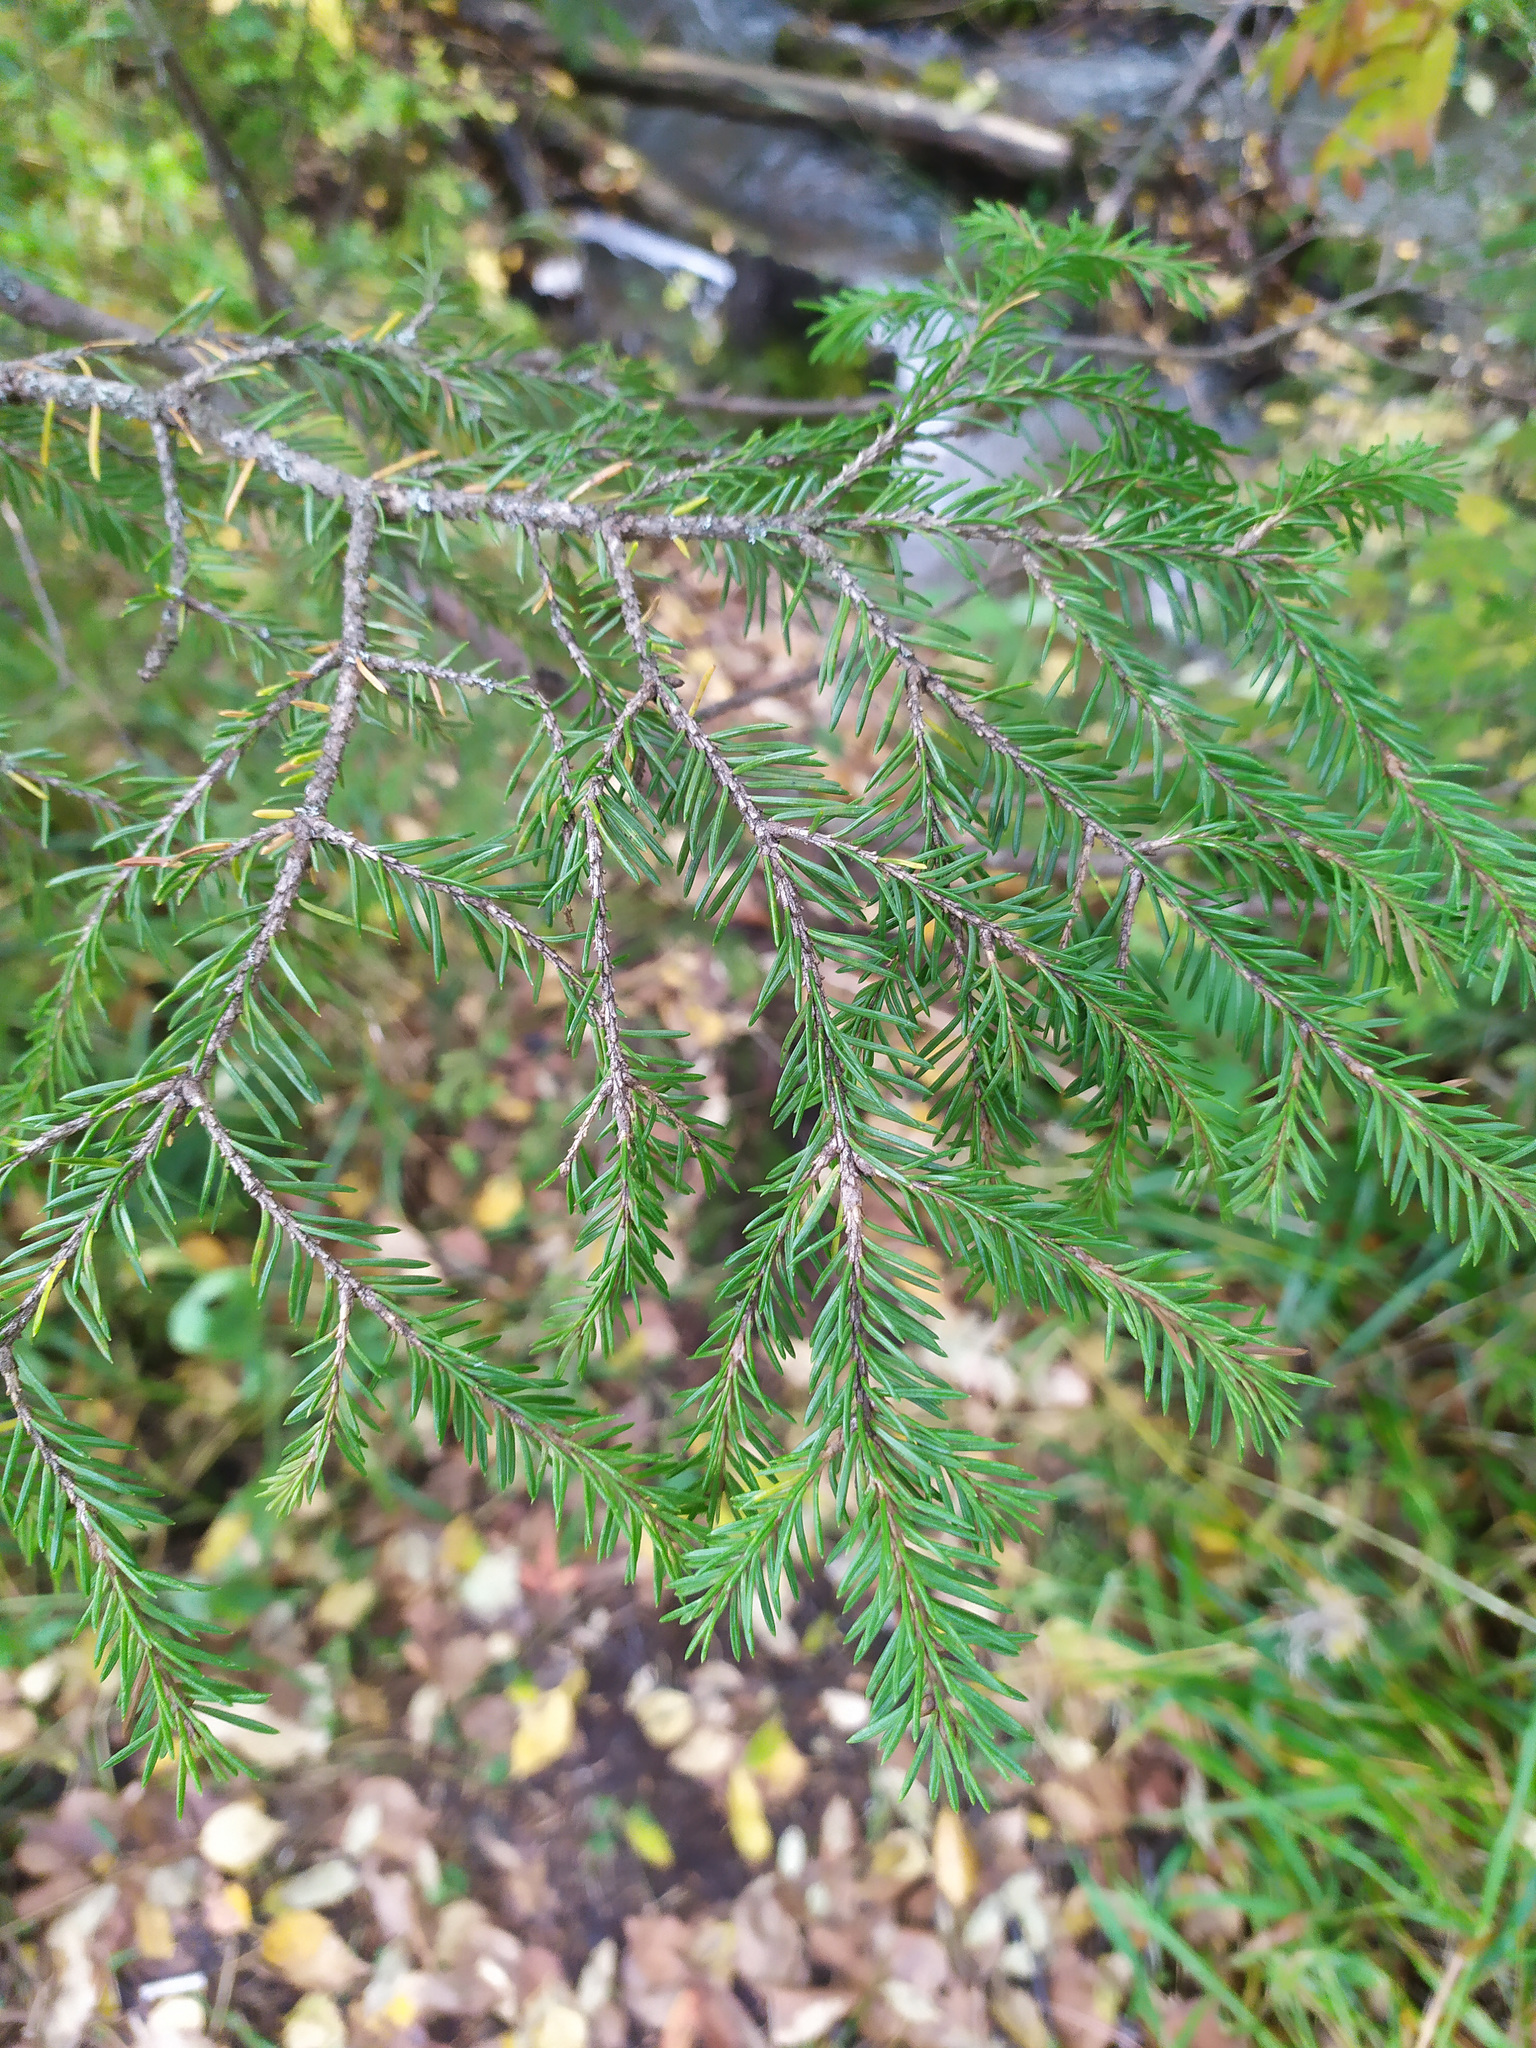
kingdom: Plantae
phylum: Tracheophyta
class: Pinopsida
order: Pinales
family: Pinaceae
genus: Picea
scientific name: Picea
